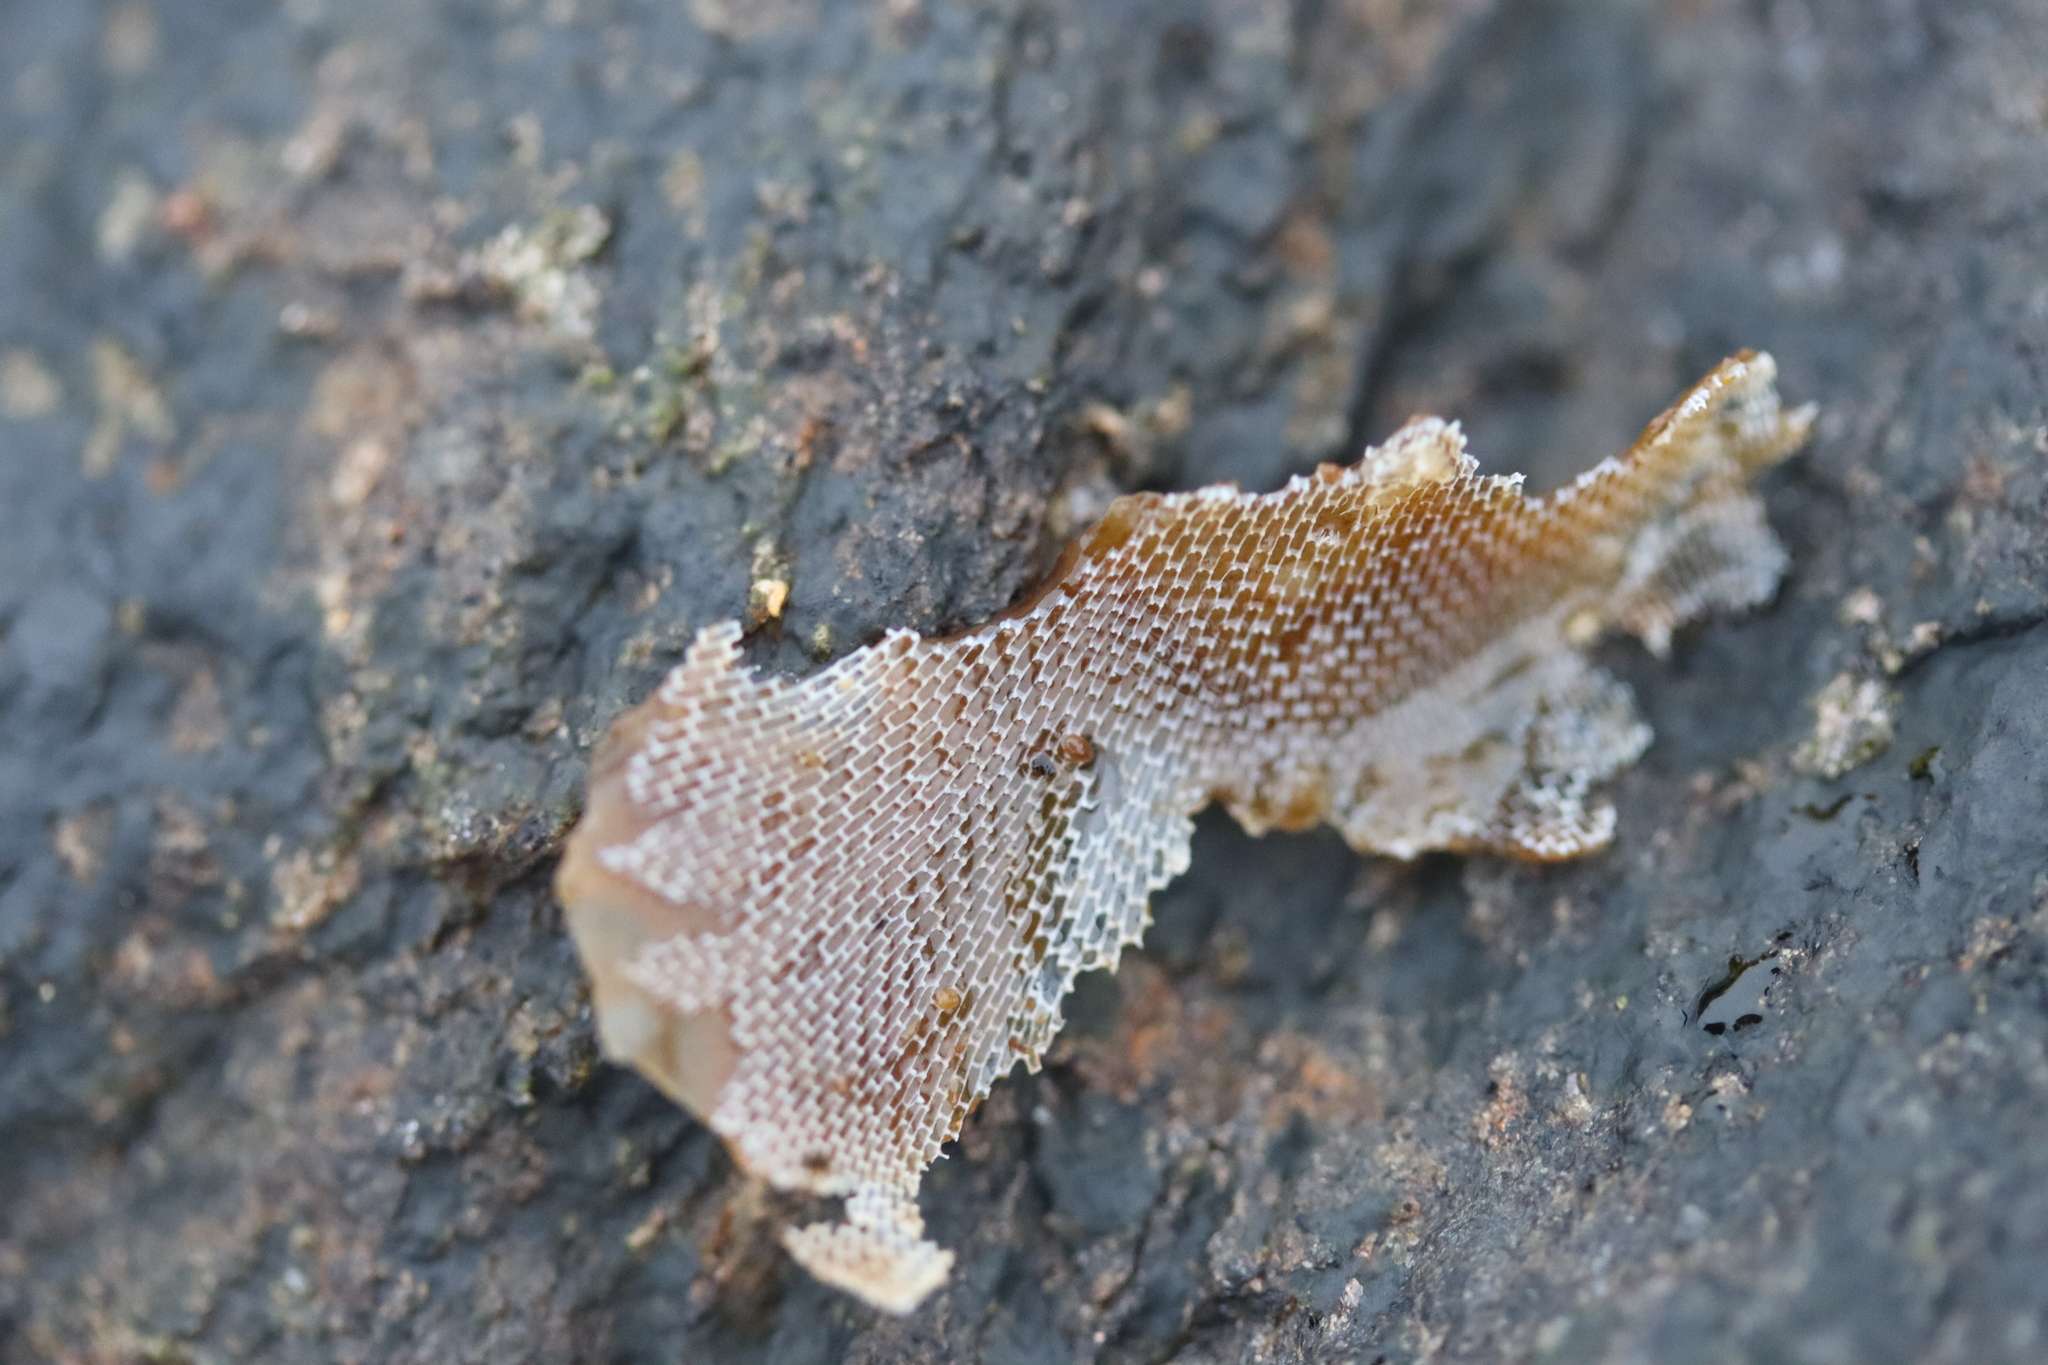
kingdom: Animalia
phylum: Bryozoa
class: Gymnolaemata
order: Cheilostomatida
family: Membraniporidae
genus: Membranipora
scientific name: Membranipora membranacea
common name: Sea mat
